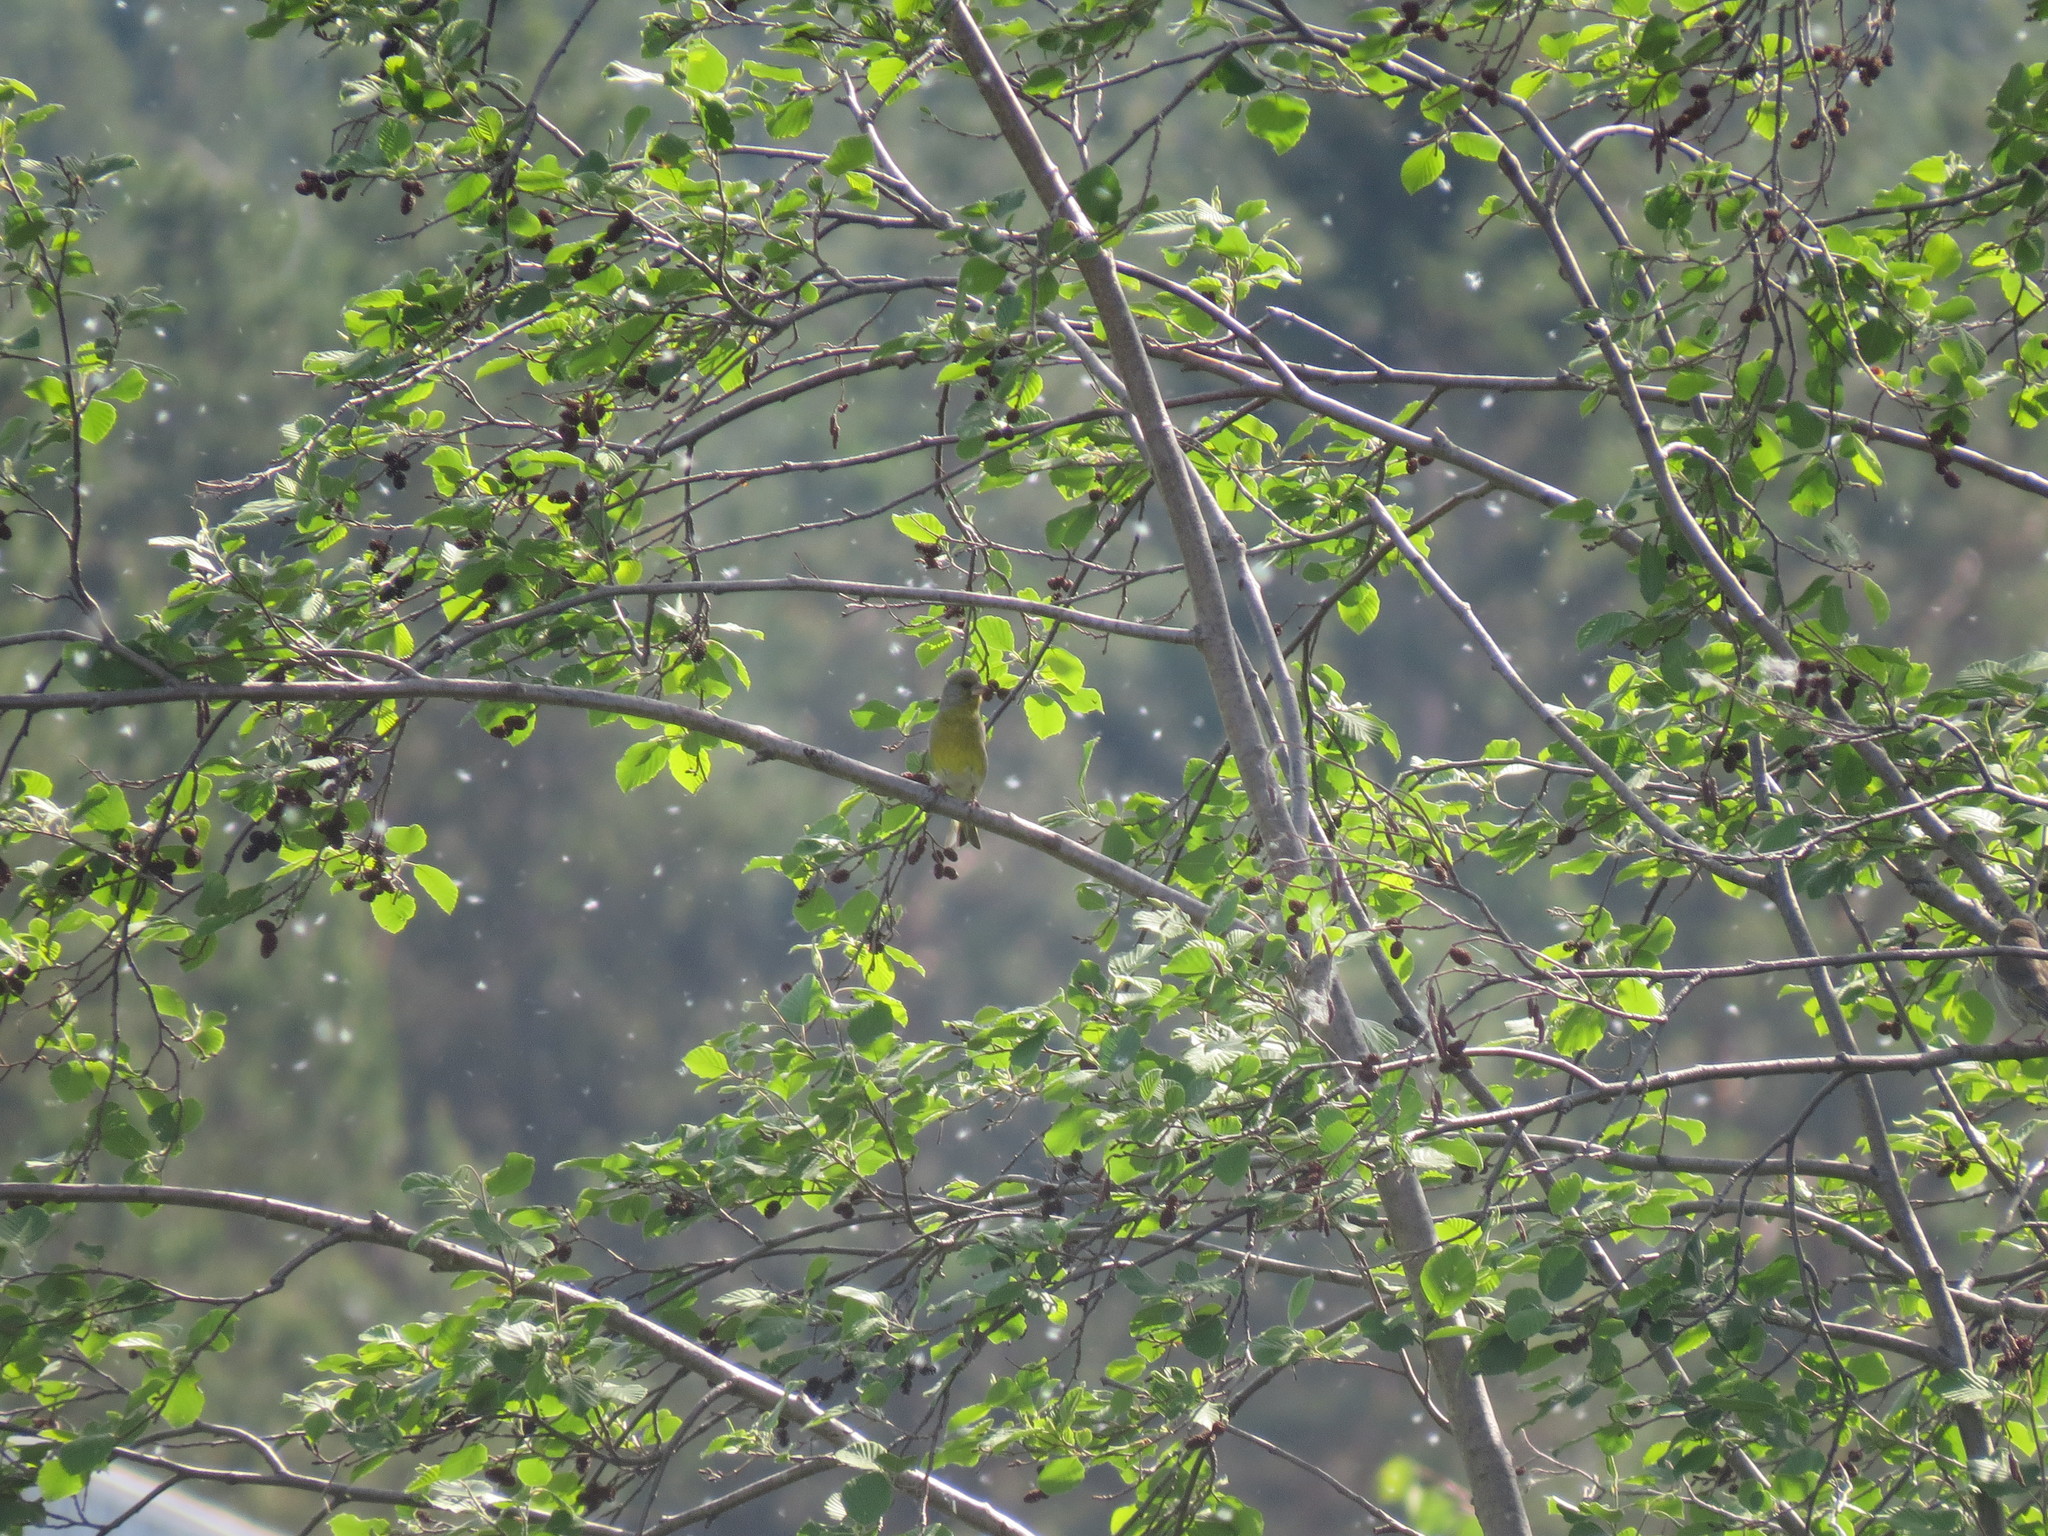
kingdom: Plantae
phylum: Tracheophyta
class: Liliopsida
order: Poales
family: Poaceae
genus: Chloris
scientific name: Chloris chloris
